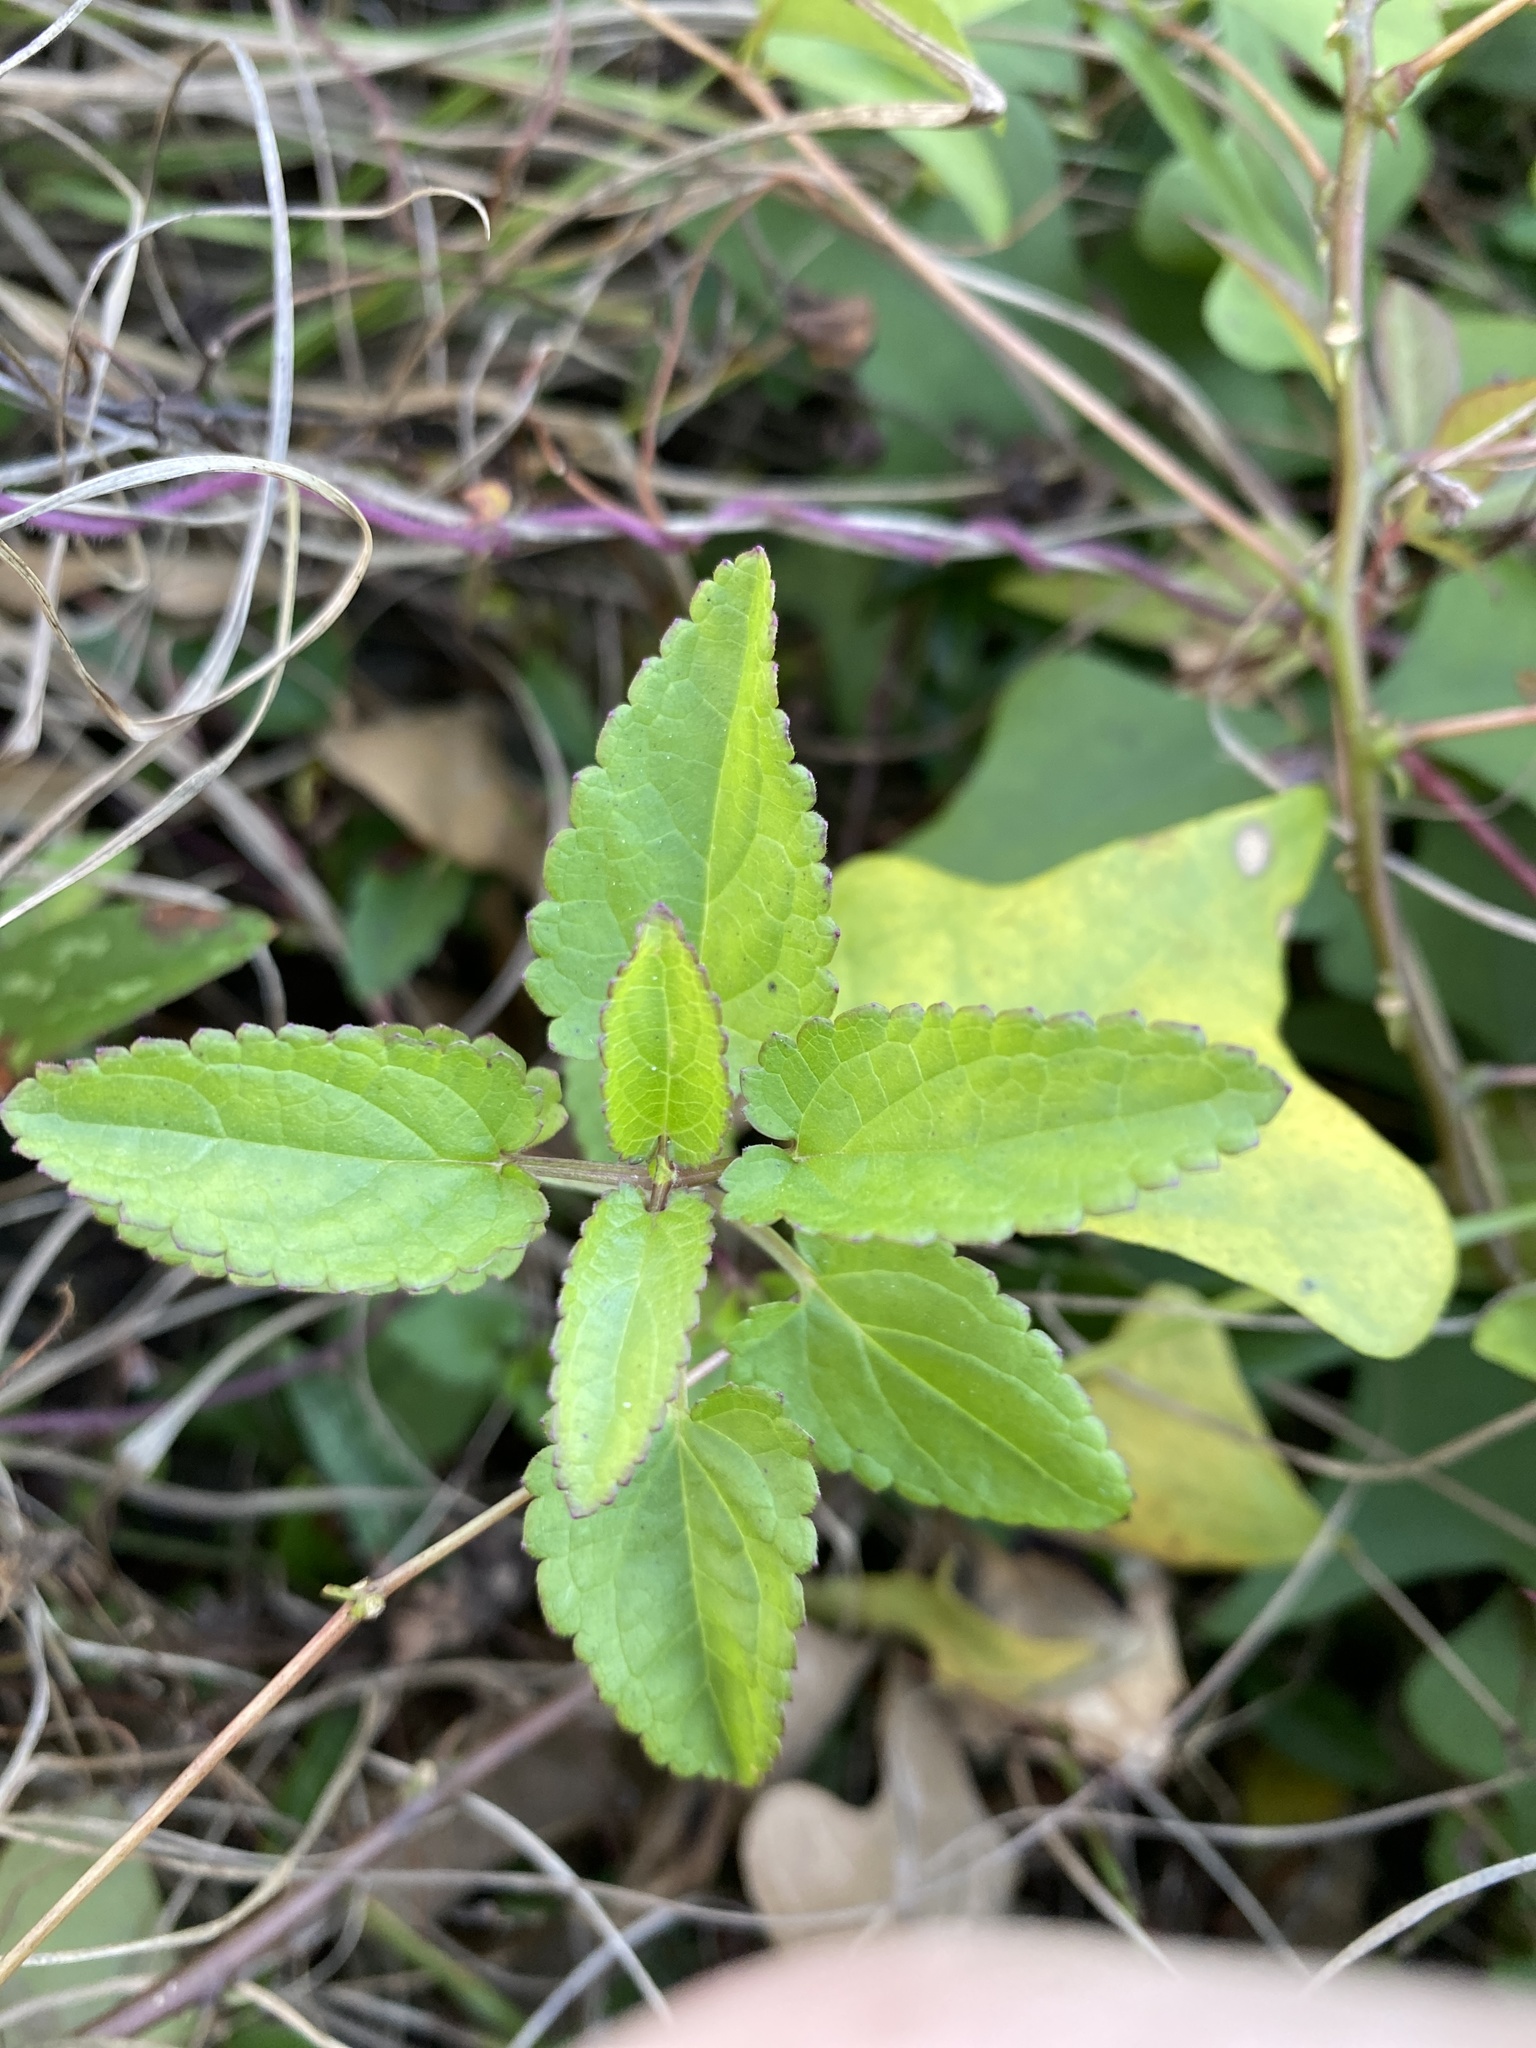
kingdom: Plantae
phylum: Tracheophyta
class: Magnoliopsida
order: Lamiales
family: Lamiaceae
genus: Stachys
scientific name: Stachys floridana
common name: Florida betony
